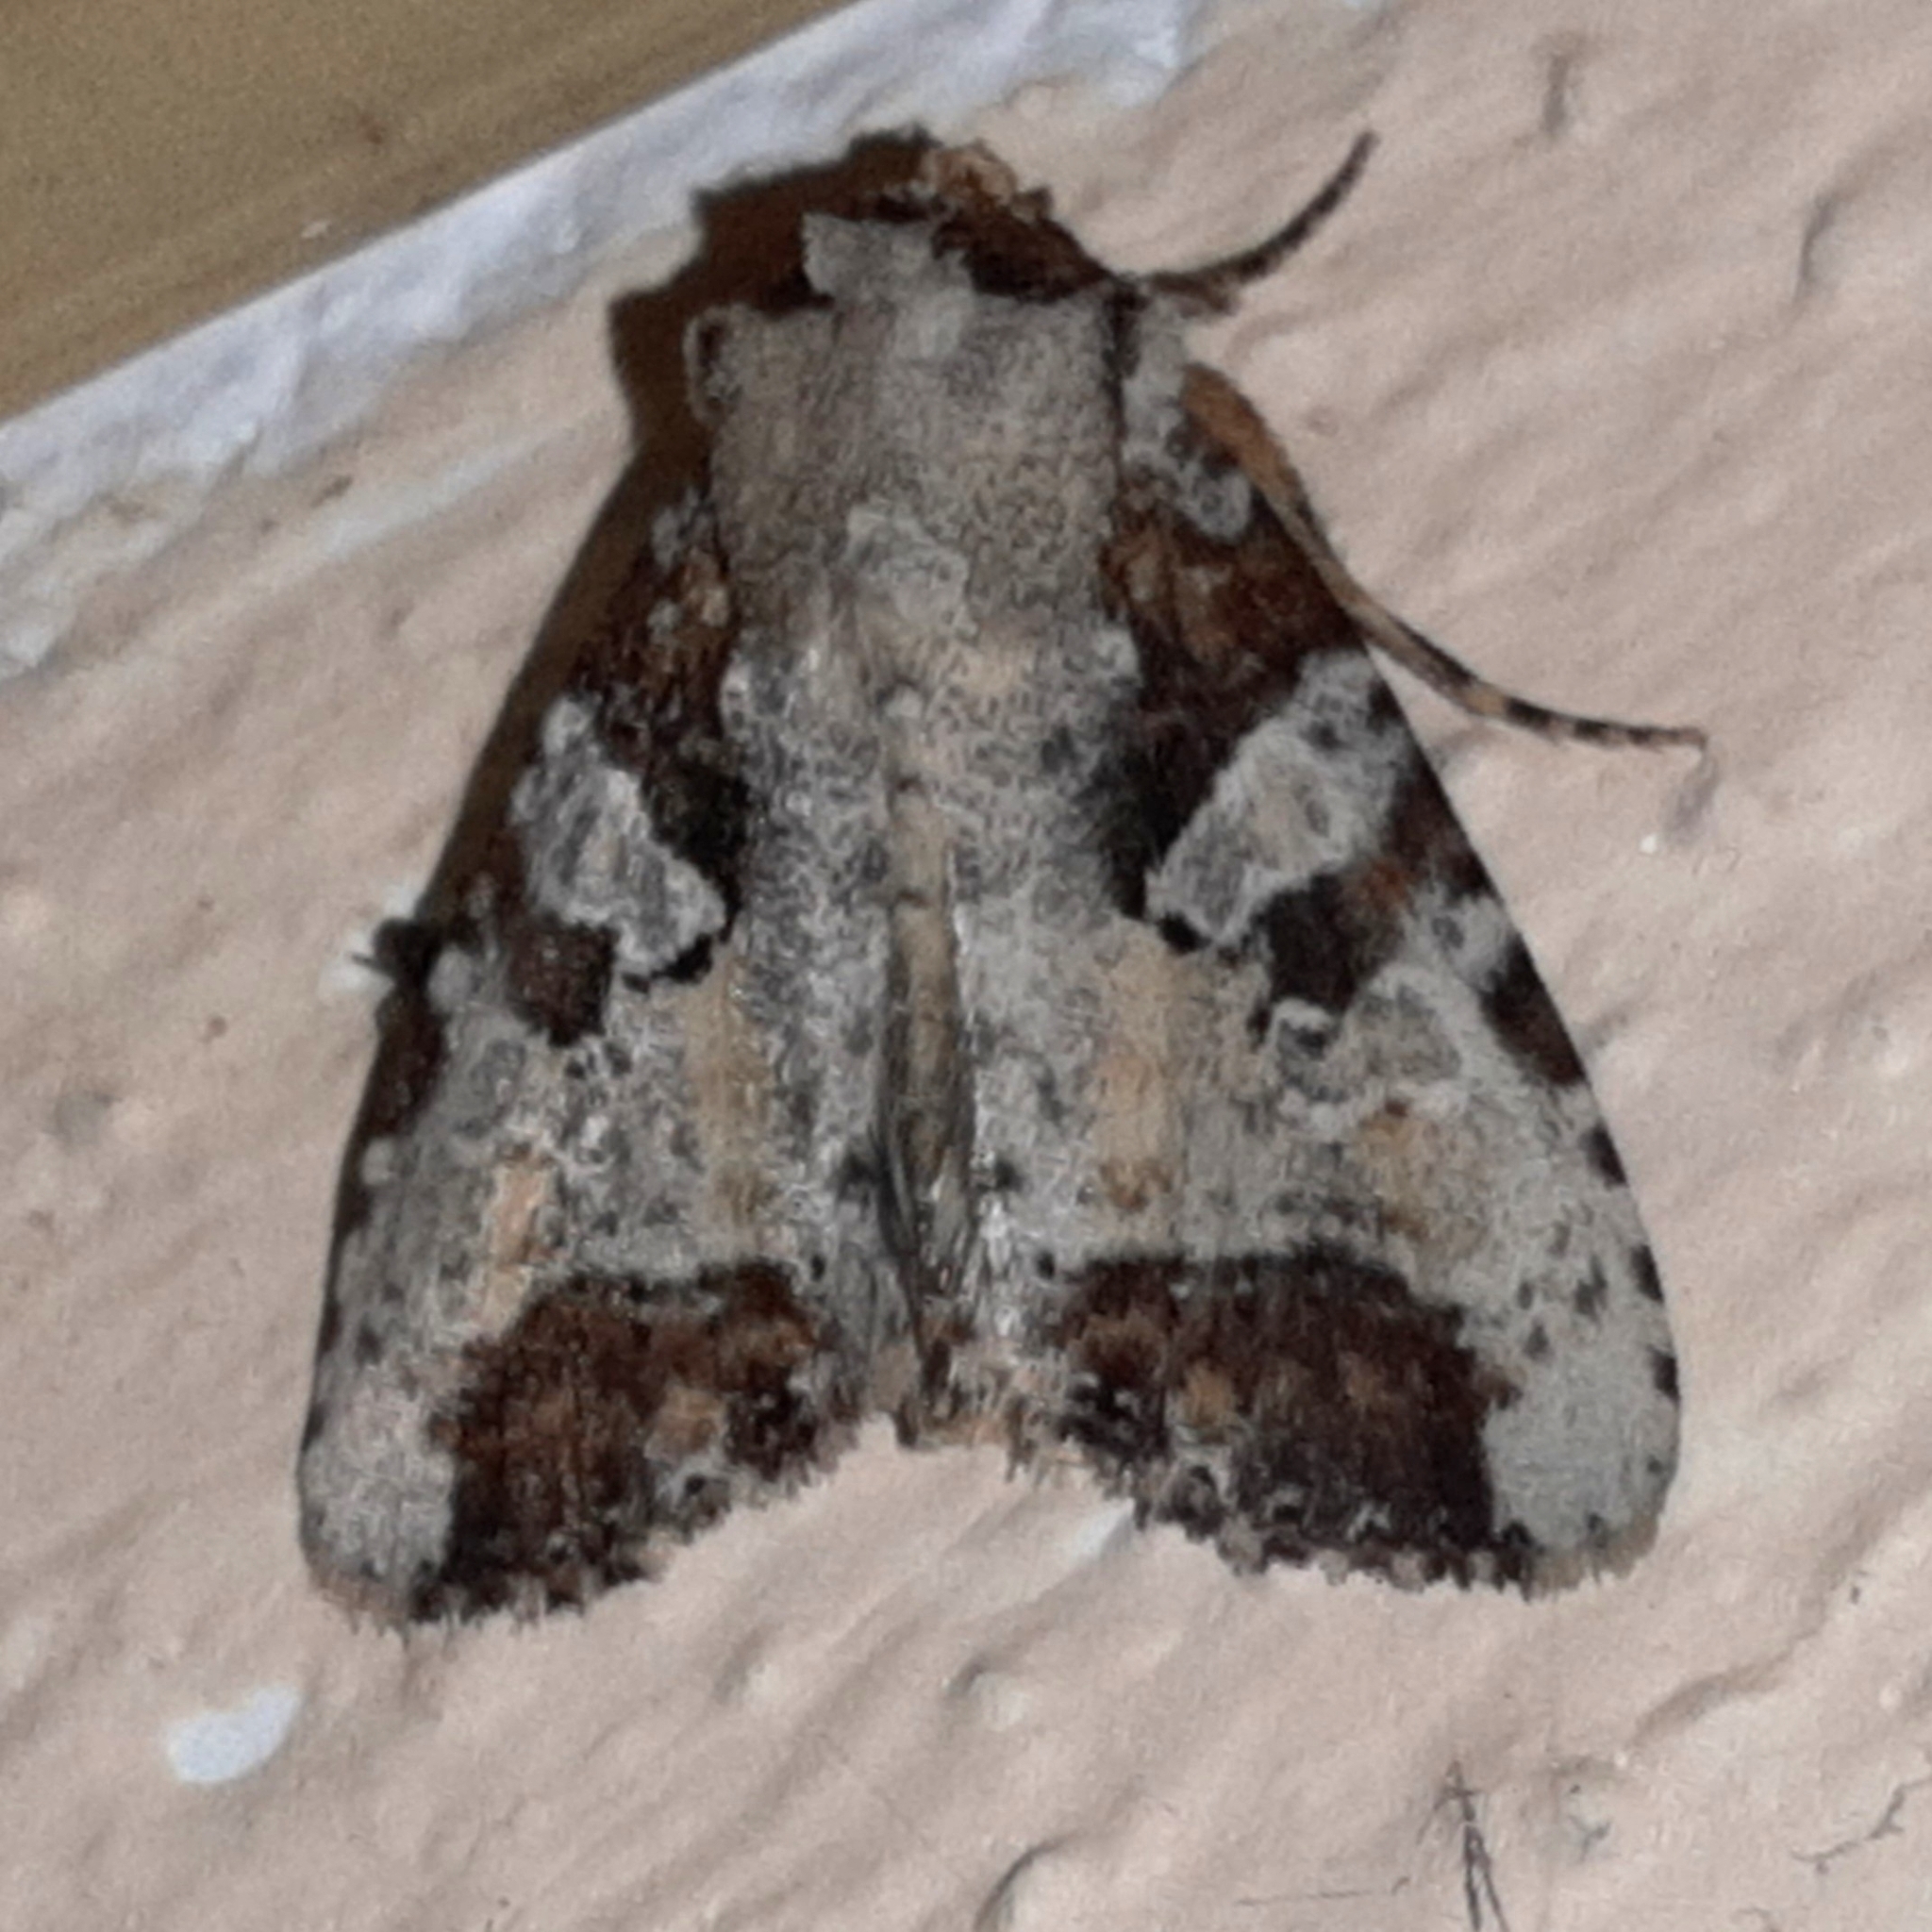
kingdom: Animalia
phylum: Arthropoda
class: Insecta
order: Lepidoptera
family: Noctuidae
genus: Condica
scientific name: Condica hippia
